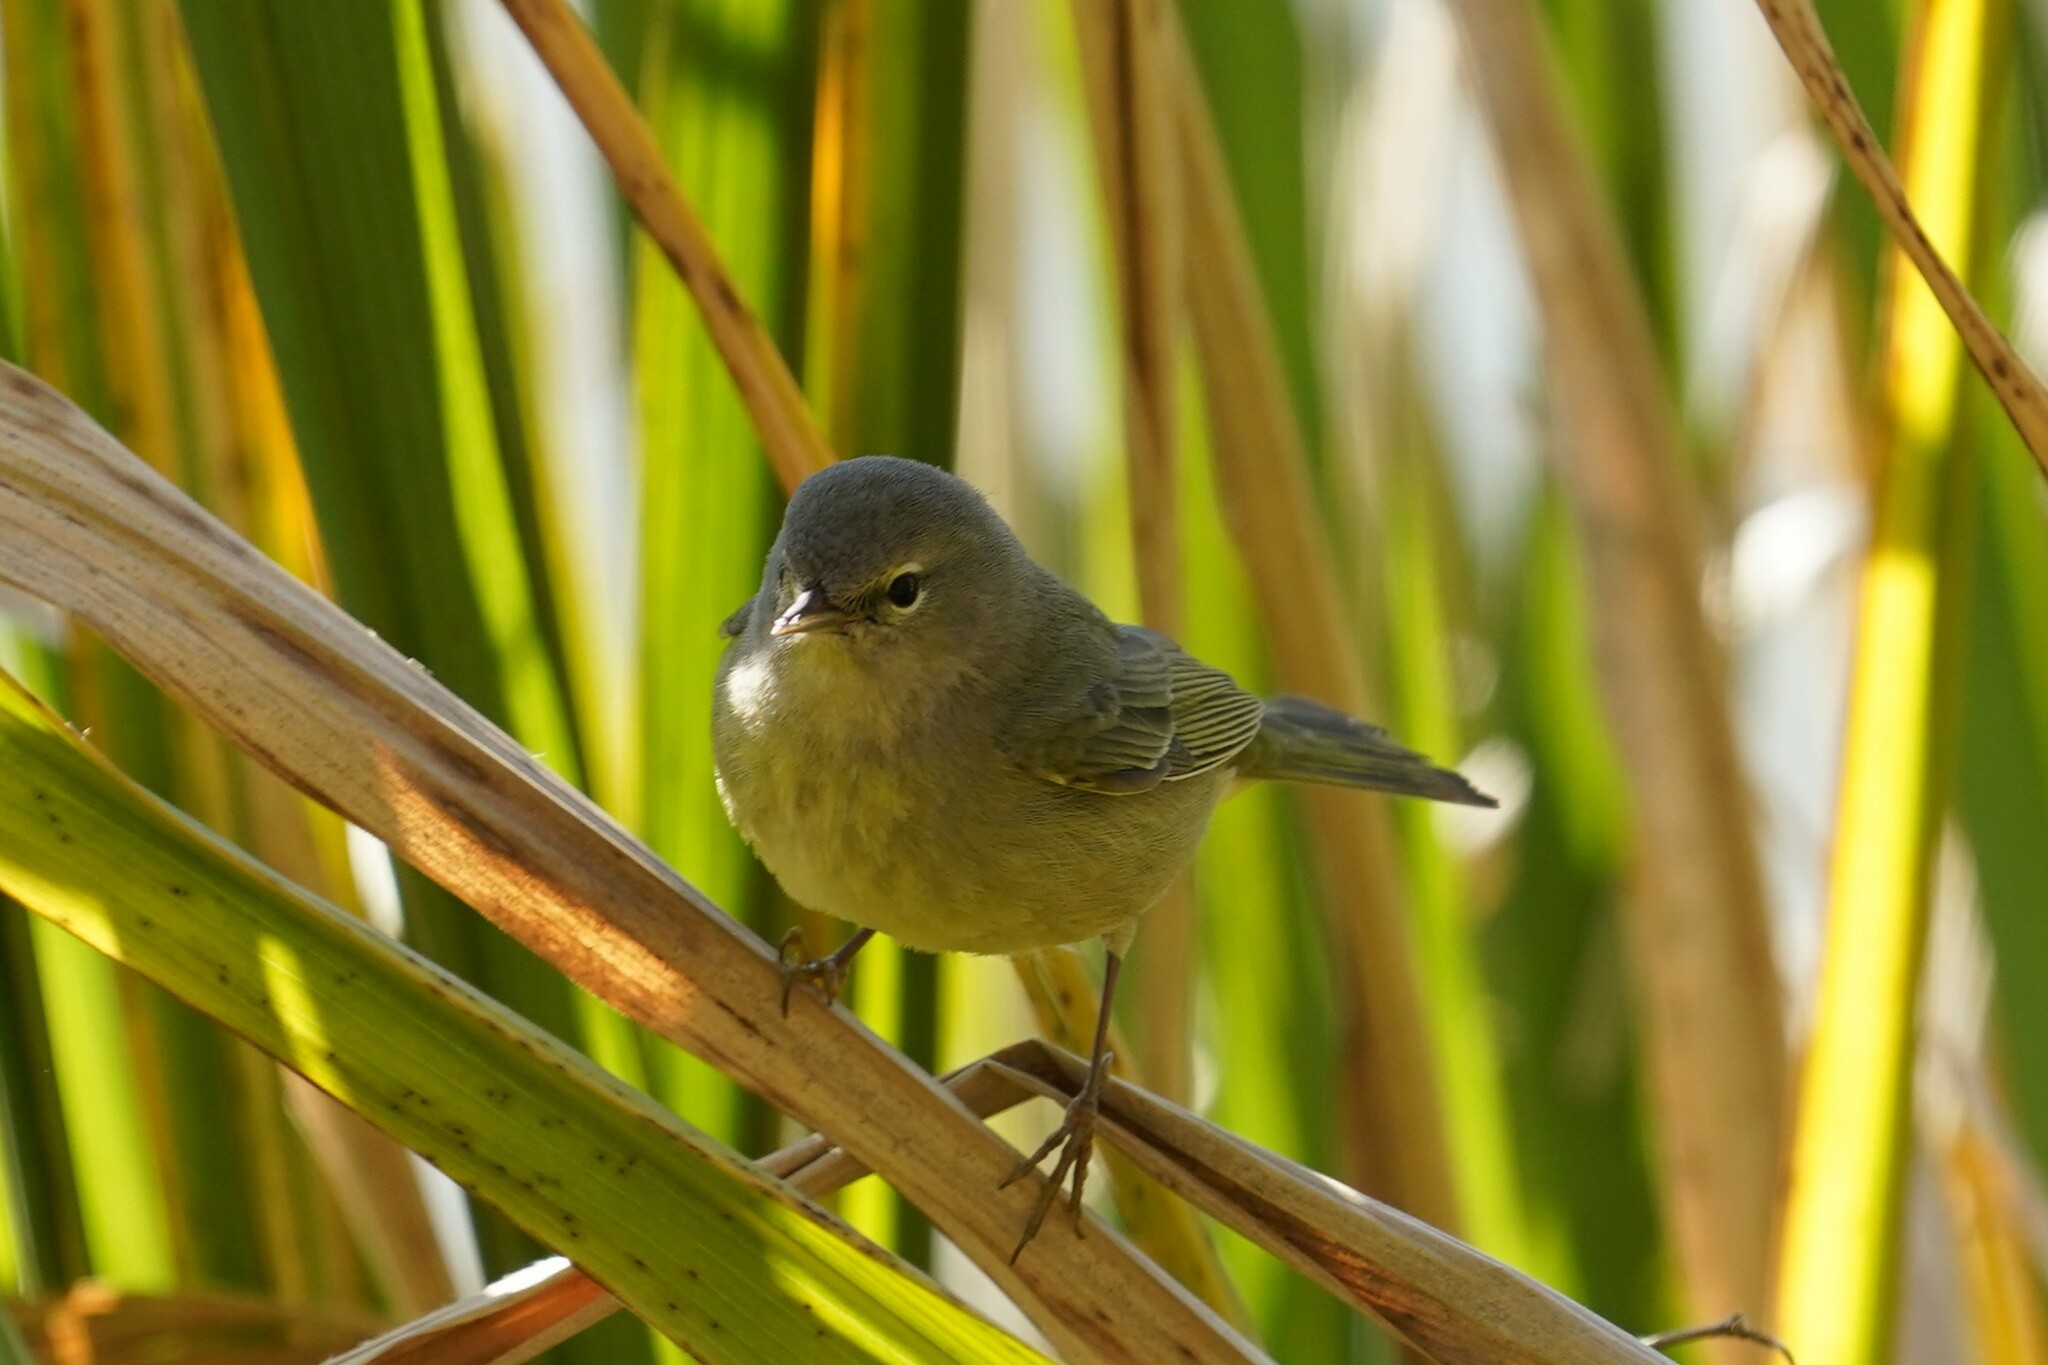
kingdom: Animalia
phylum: Chordata
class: Aves
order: Passeriformes
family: Parulidae
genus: Leiothlypis
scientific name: Leiothlypis celata
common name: Orange-crowned warbler
